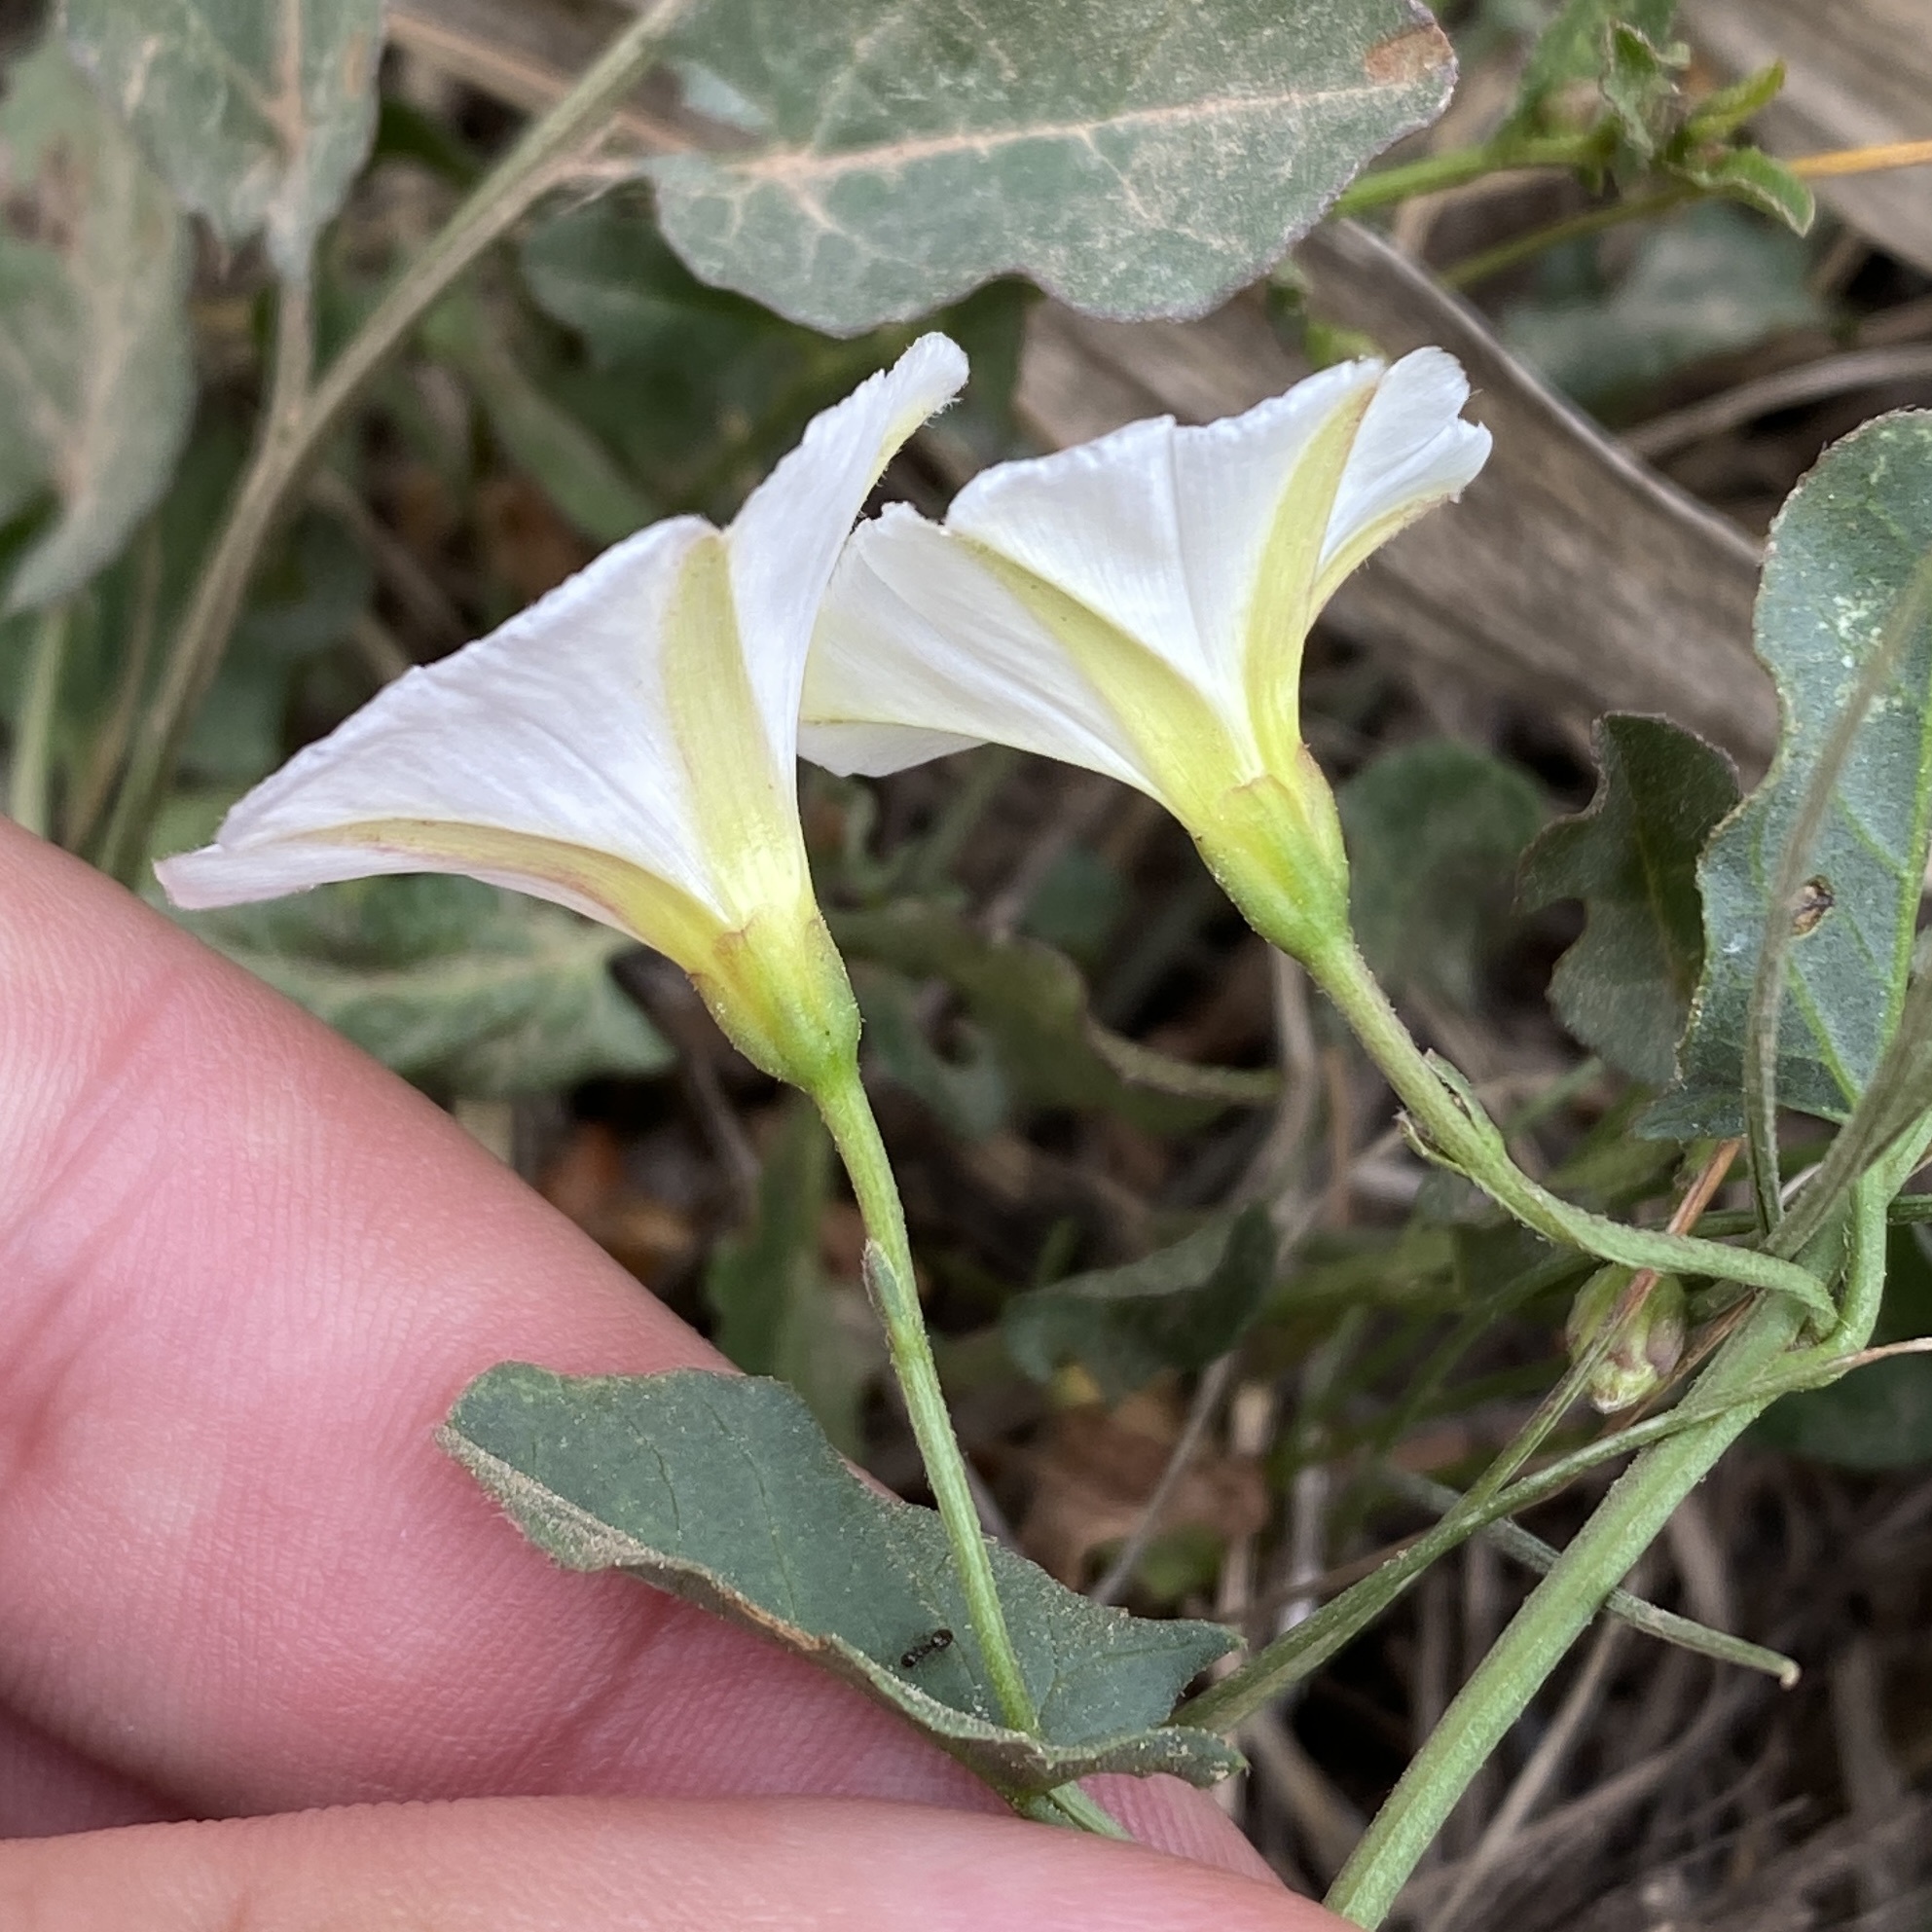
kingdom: Plantae
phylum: Tracheophyta
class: Magnoliopsida
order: Solanales
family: Convolvulaceae
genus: Convolvulus
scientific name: Convolvulus arvensis
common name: Field bindweed
